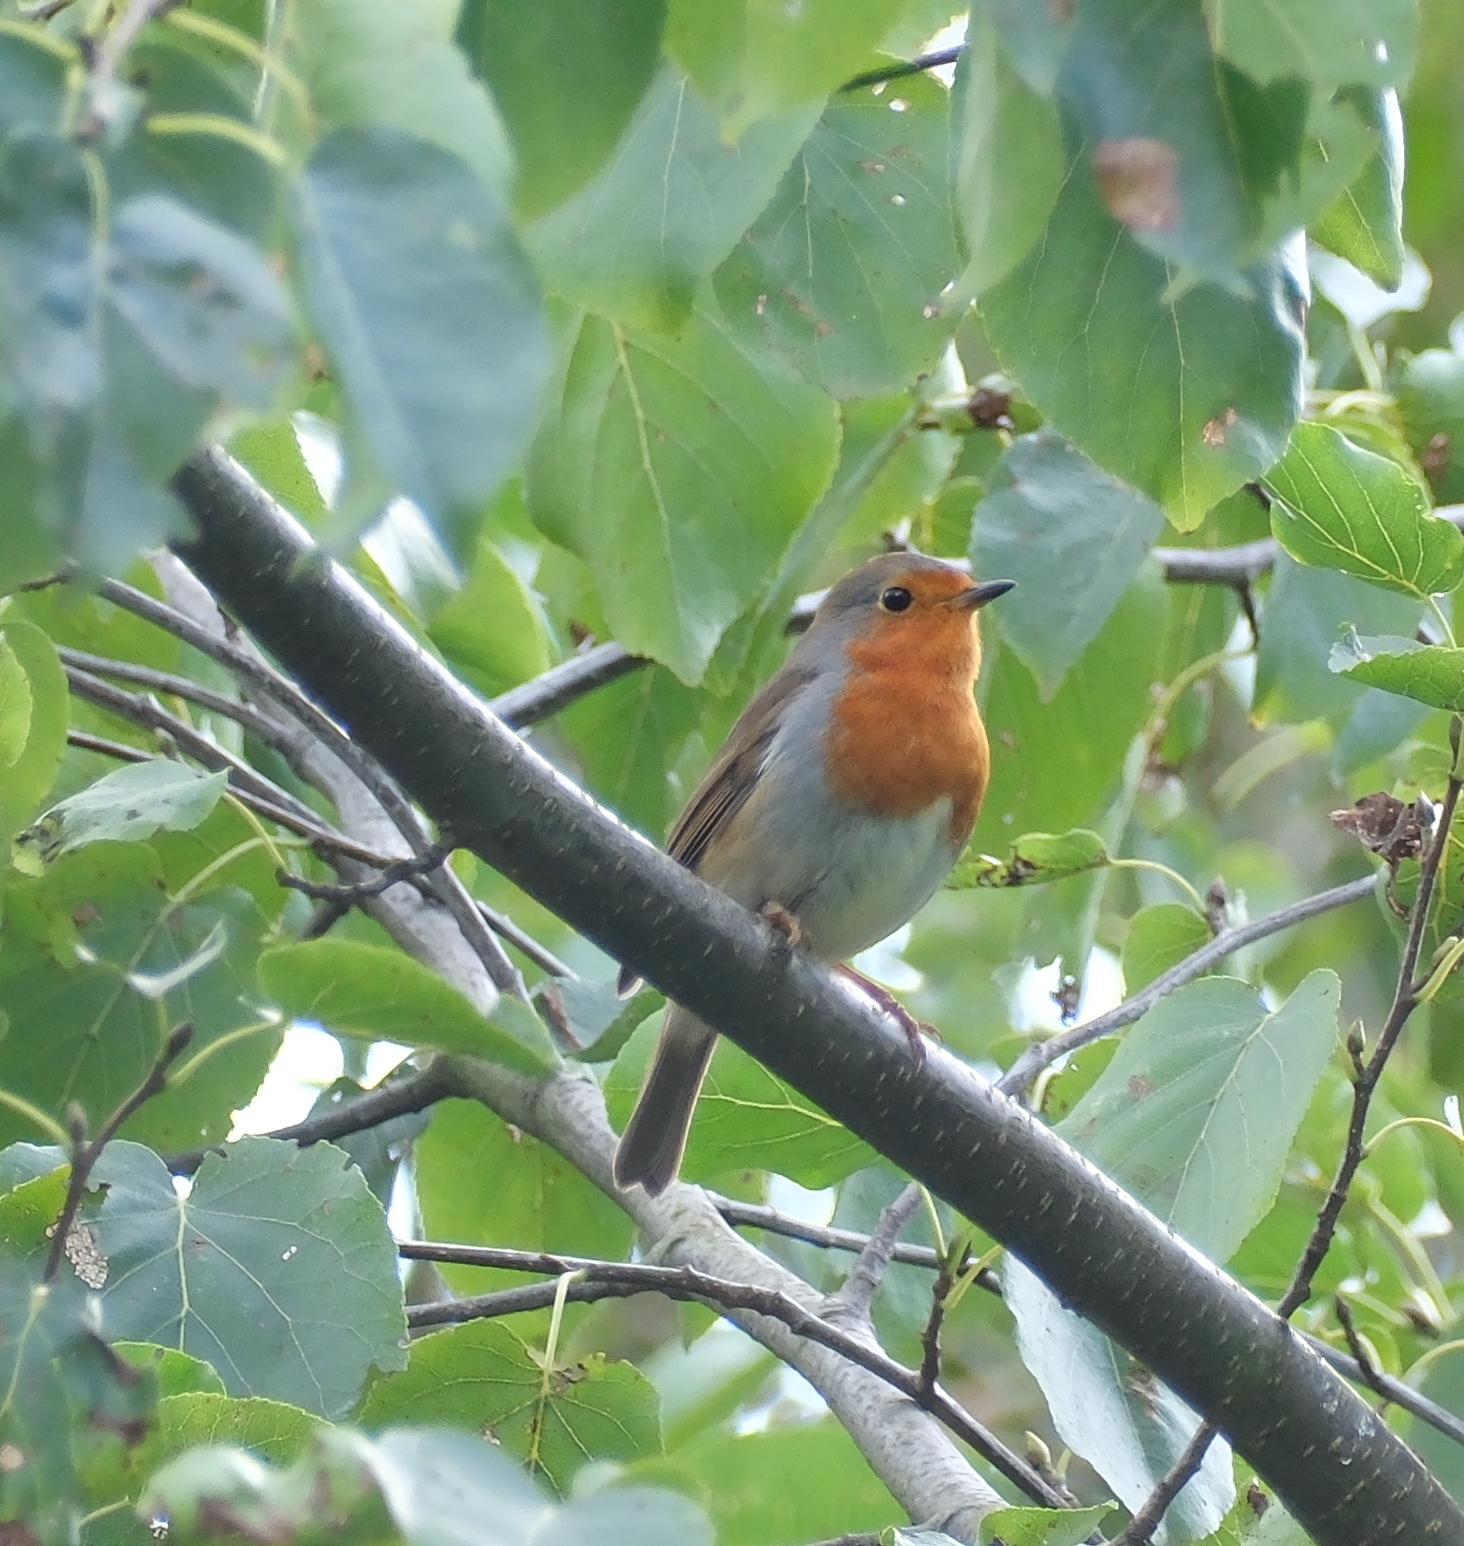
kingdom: Animalia
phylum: Chordata
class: Aves
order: Passeriformes
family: Muscicapidae
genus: Erithacus
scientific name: Erithacus rubecula
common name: European robin
